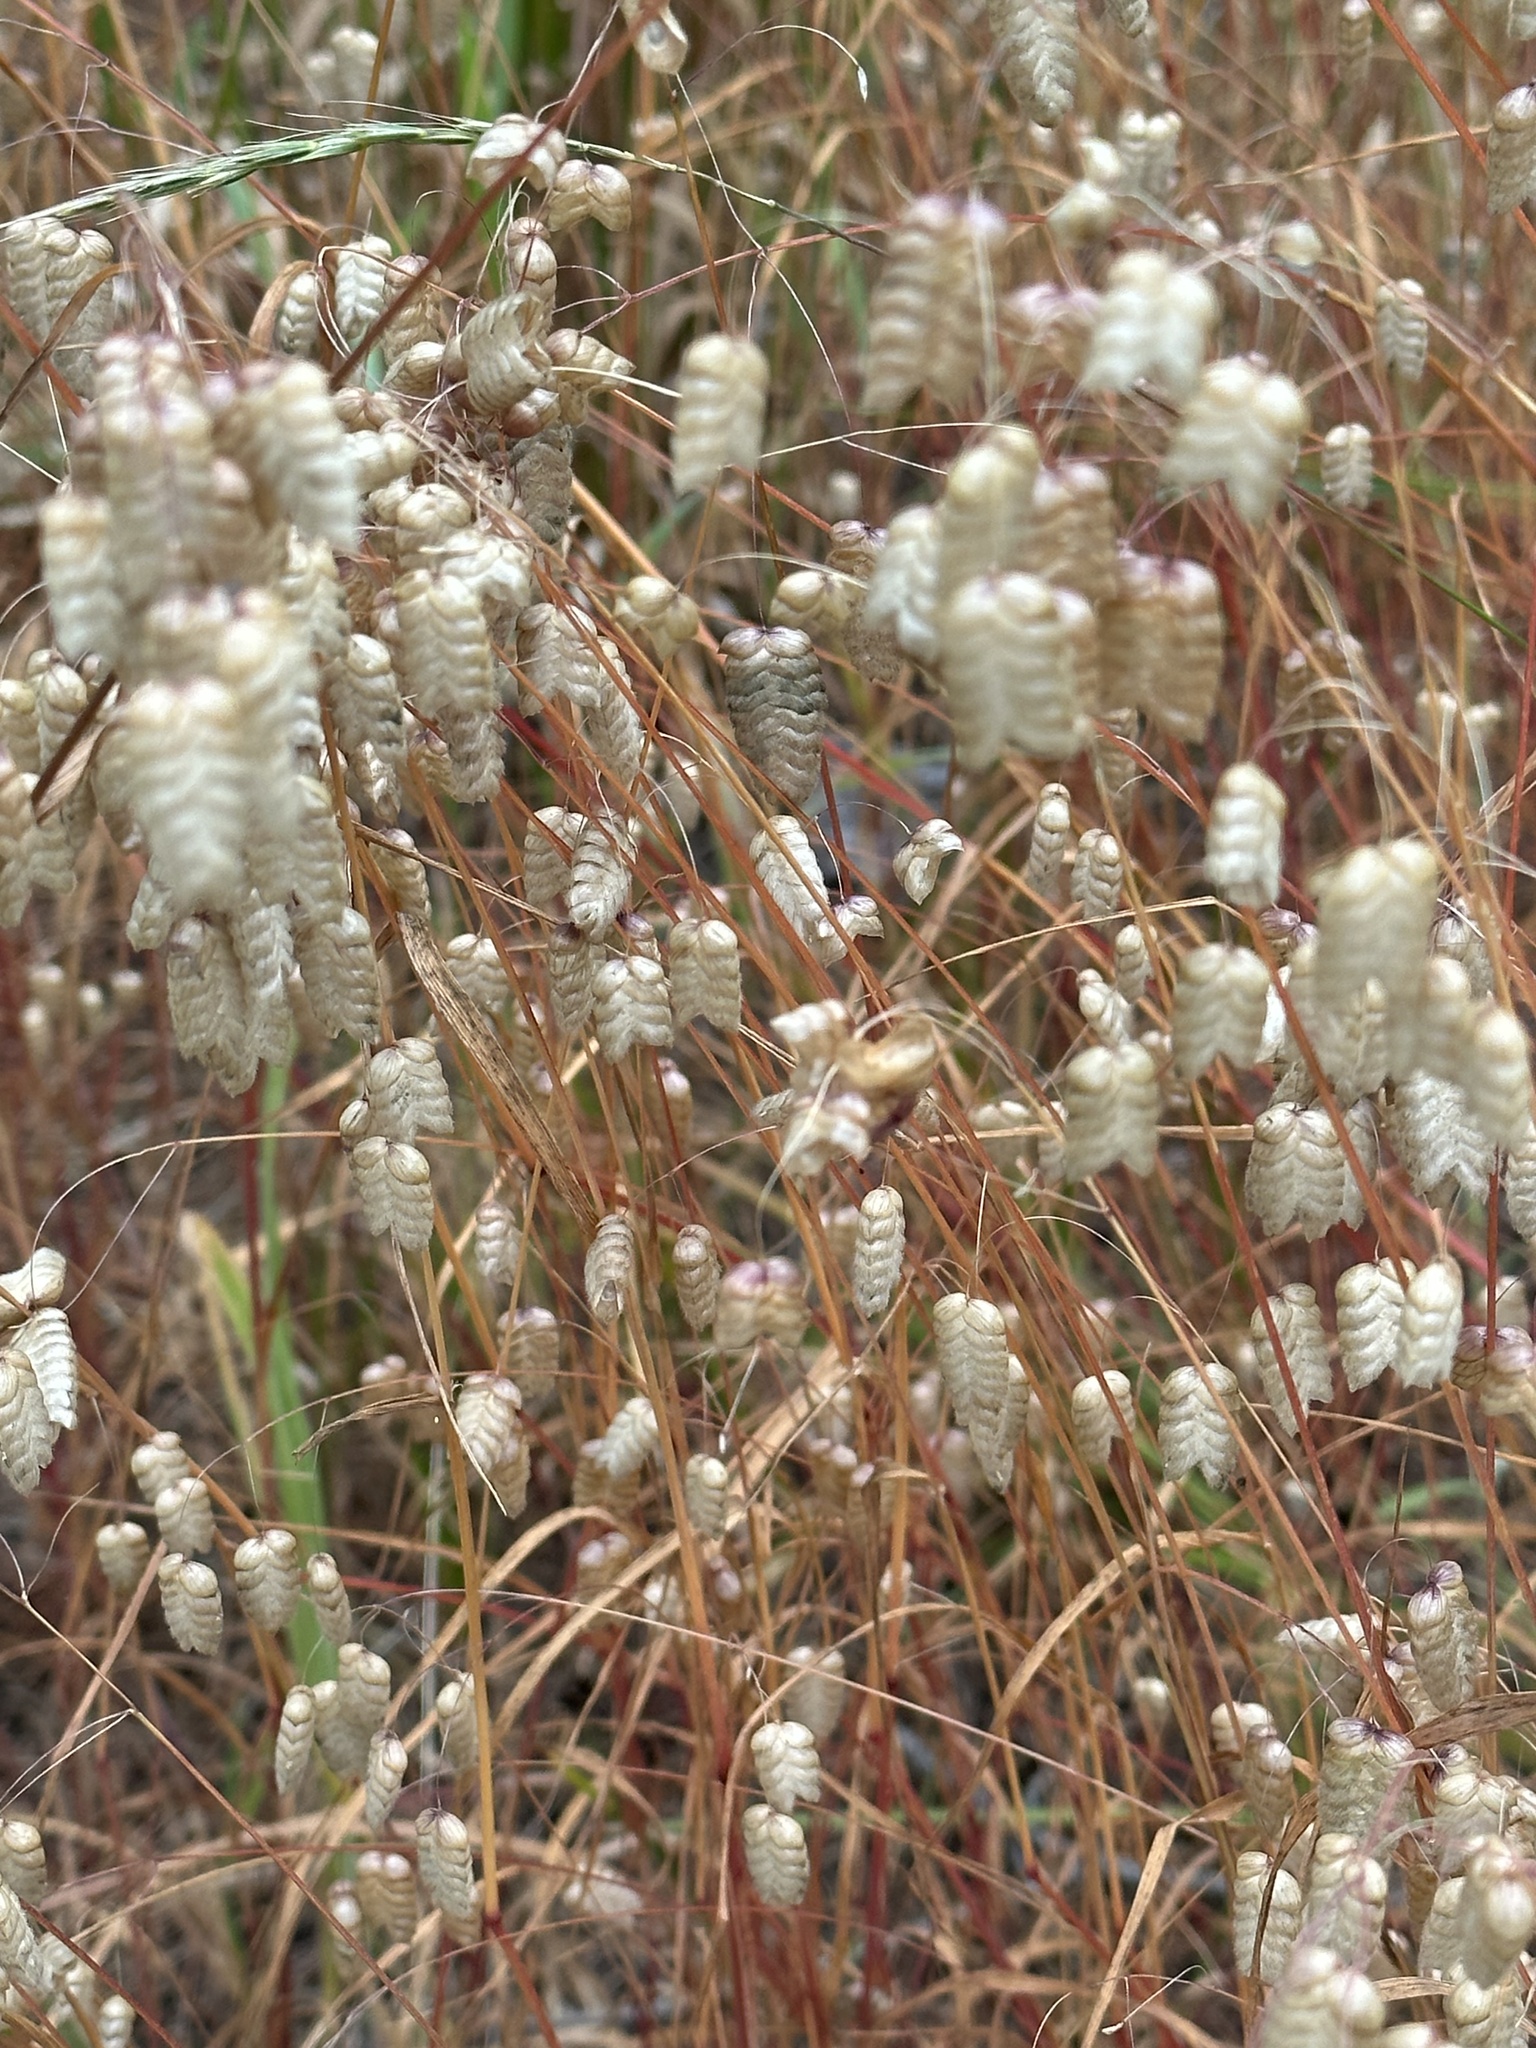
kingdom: Plantae
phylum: Tracheophyta
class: Liliopsida
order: Poales
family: Poaceae
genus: Briza
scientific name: Briza maxima
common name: Big quakinggrass
